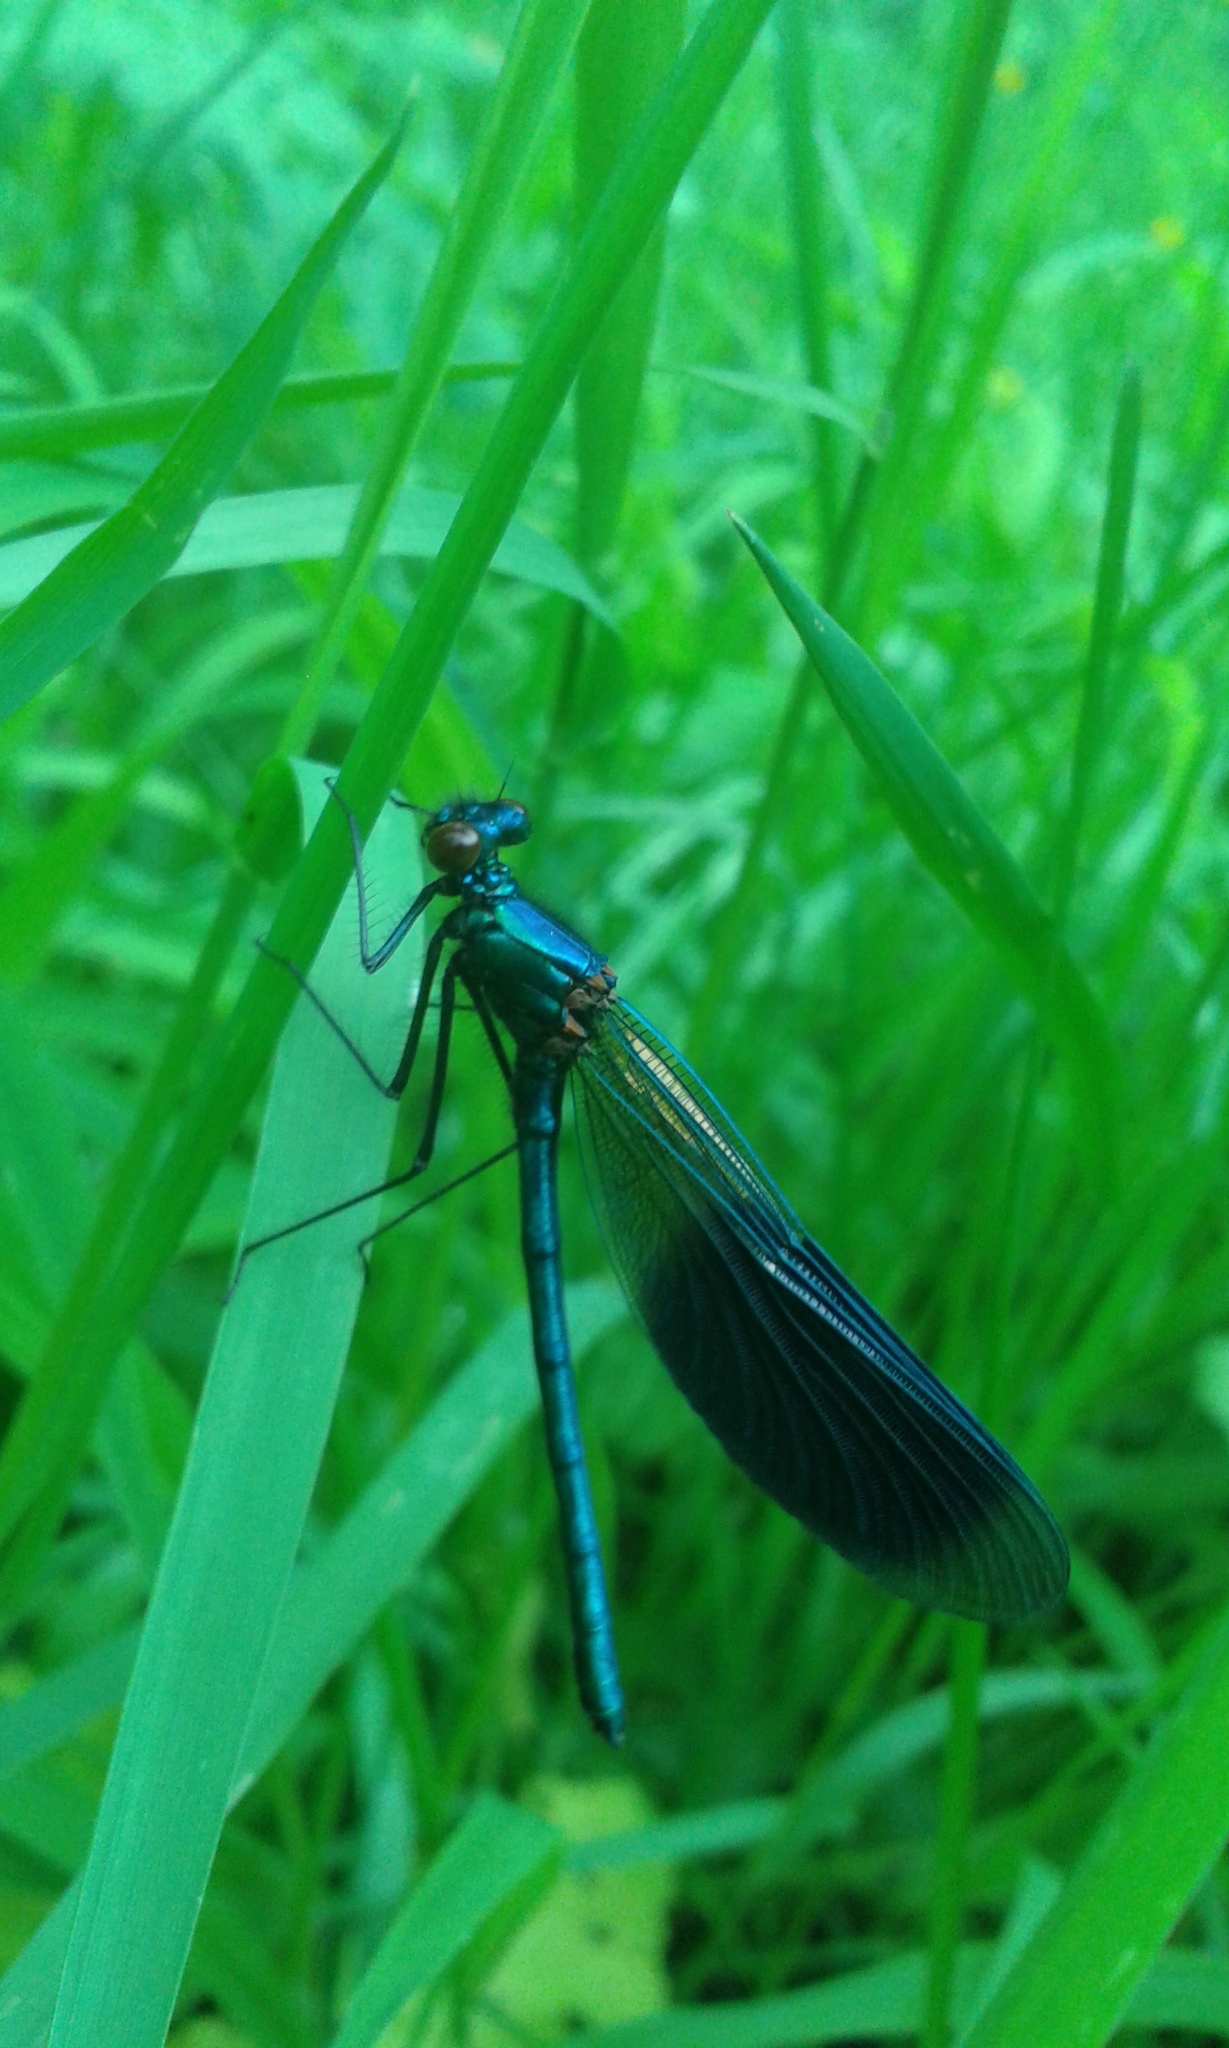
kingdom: Animalia
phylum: Arthropoda
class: Insecta
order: Odonata
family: Calopterygidae
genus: Calopteryx
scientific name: Calopteryx splendens
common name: Banded demoiselle
